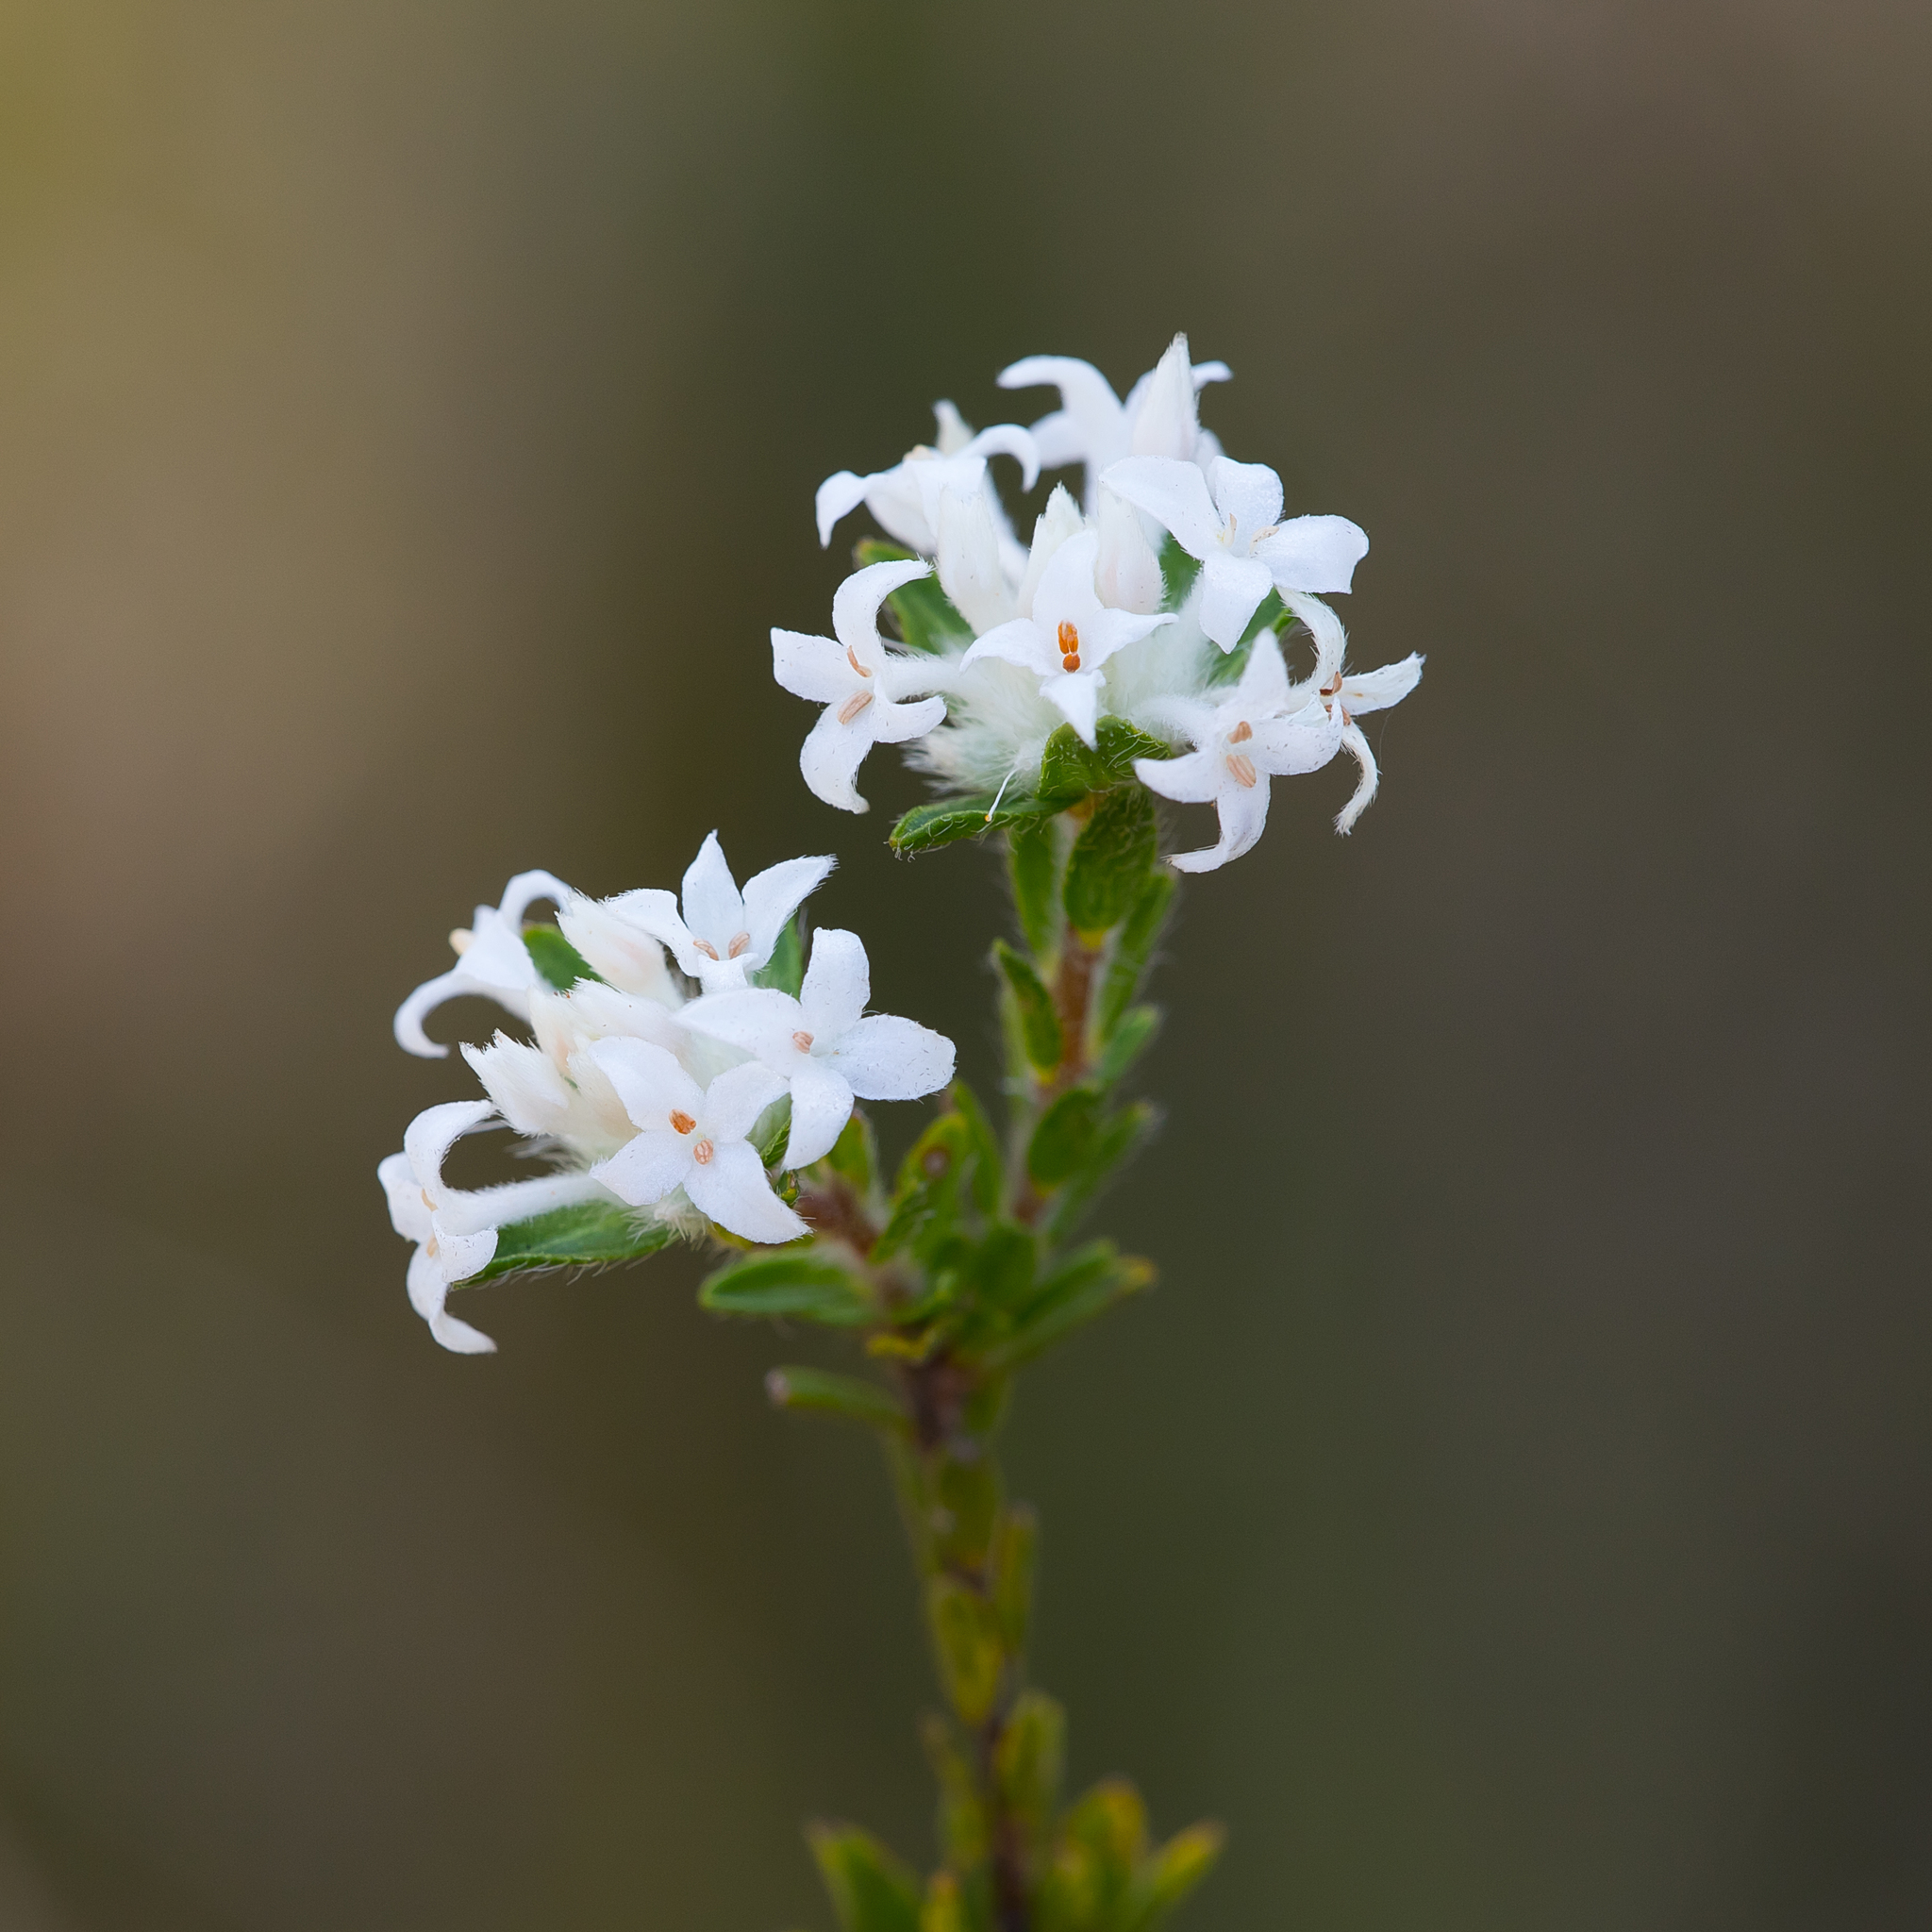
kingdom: Plantae
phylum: Tracheophyta
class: Magnoliopsida
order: Malvales
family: Thymelaeaceae
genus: Pimelea
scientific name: Pimelea phylicoides
